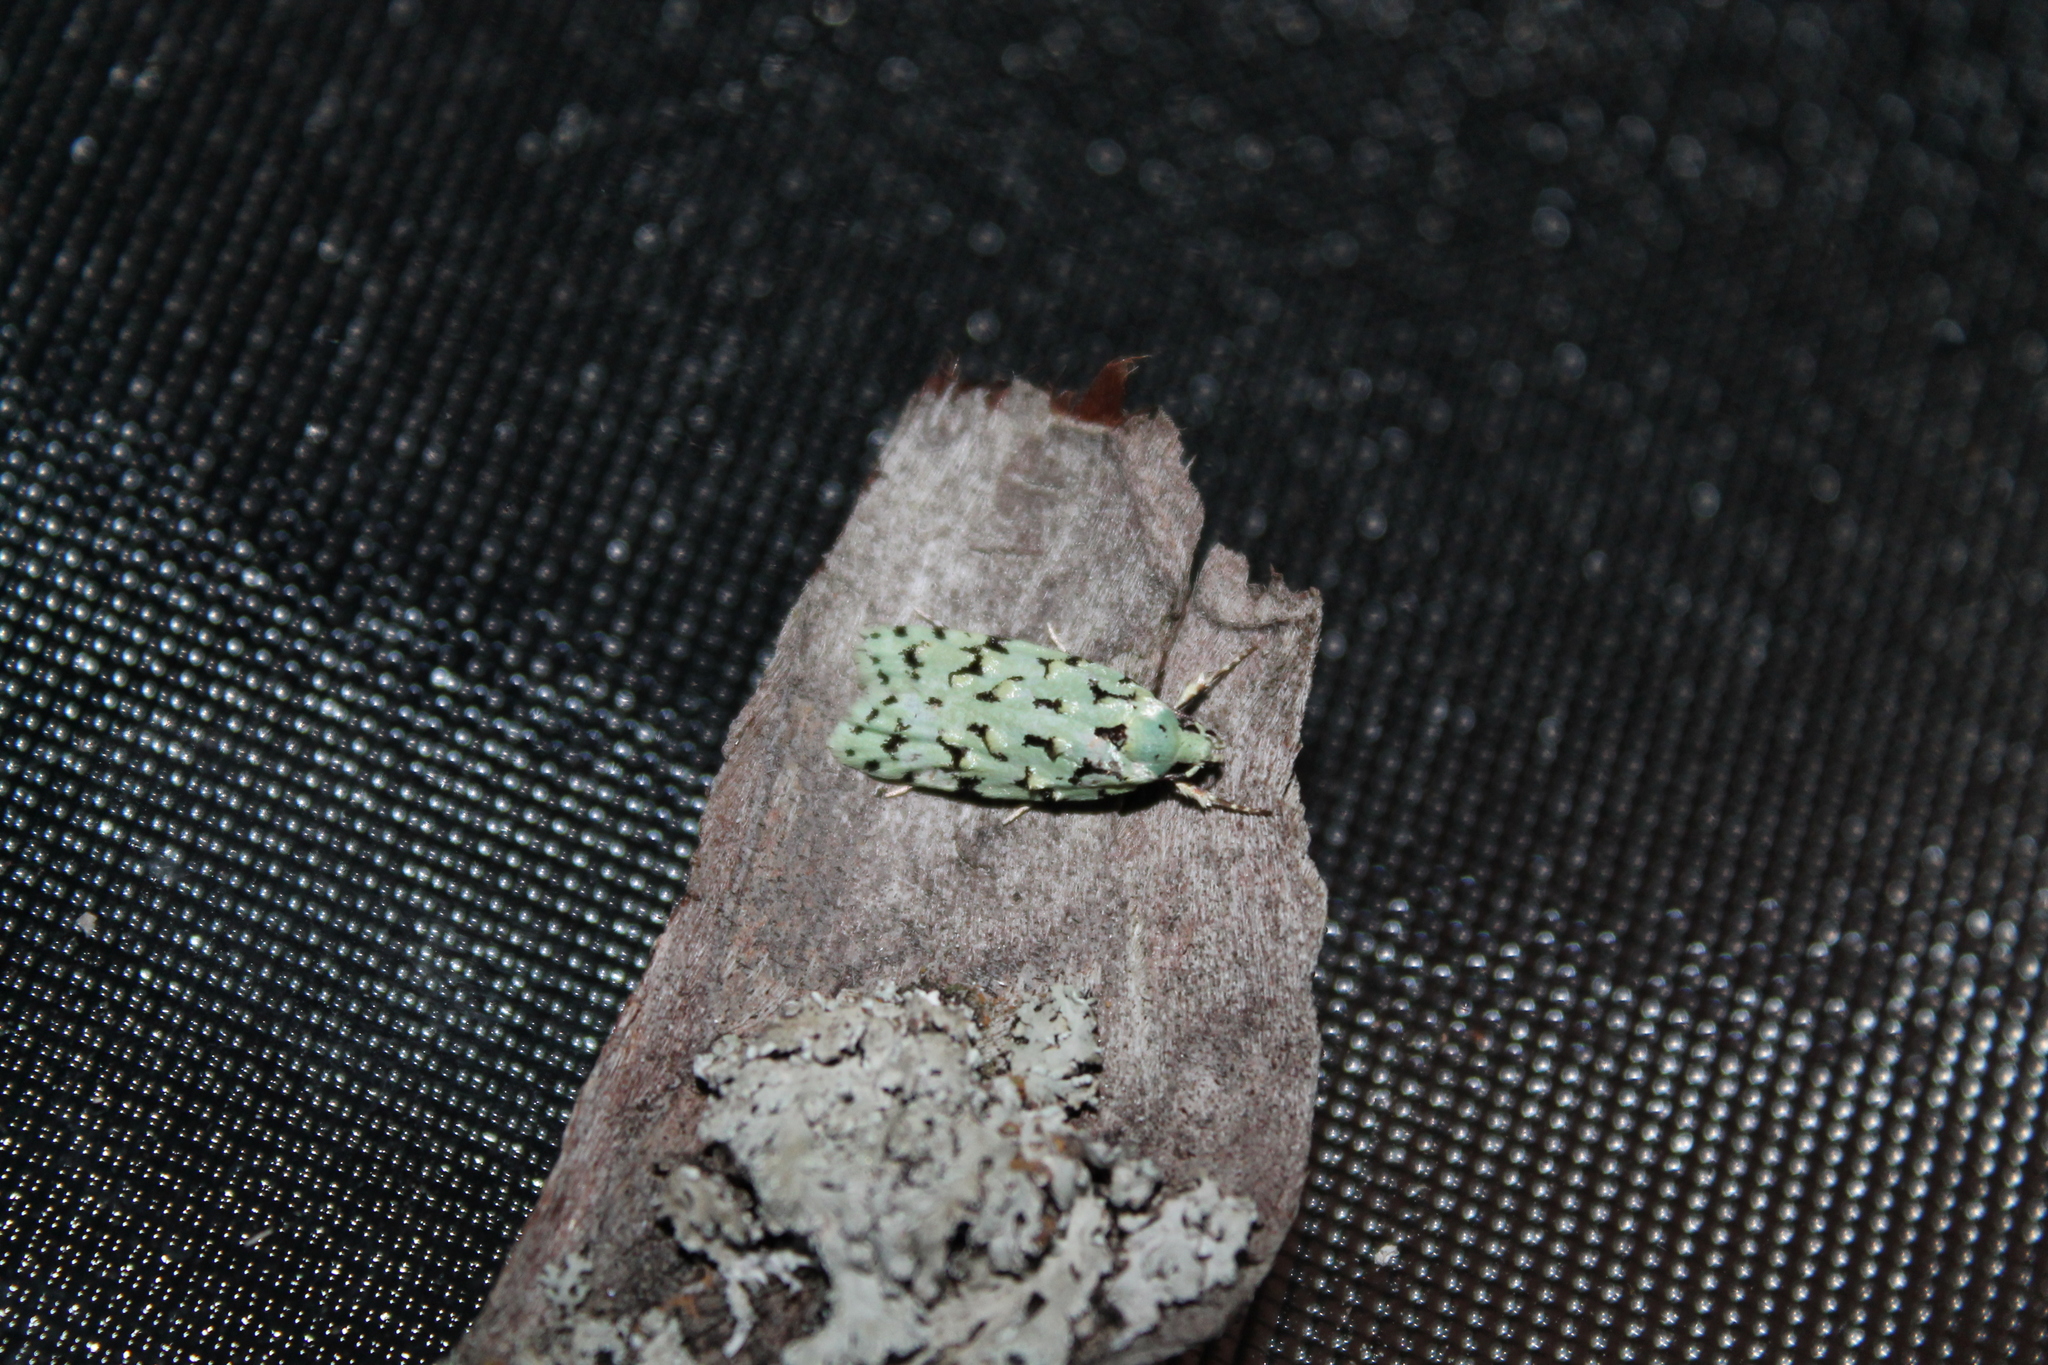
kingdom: Animalia
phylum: Arthropoda
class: Insecta
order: Lepidoptera
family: Oecophoridae
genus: Izatha
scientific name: Izatha peroneanella
